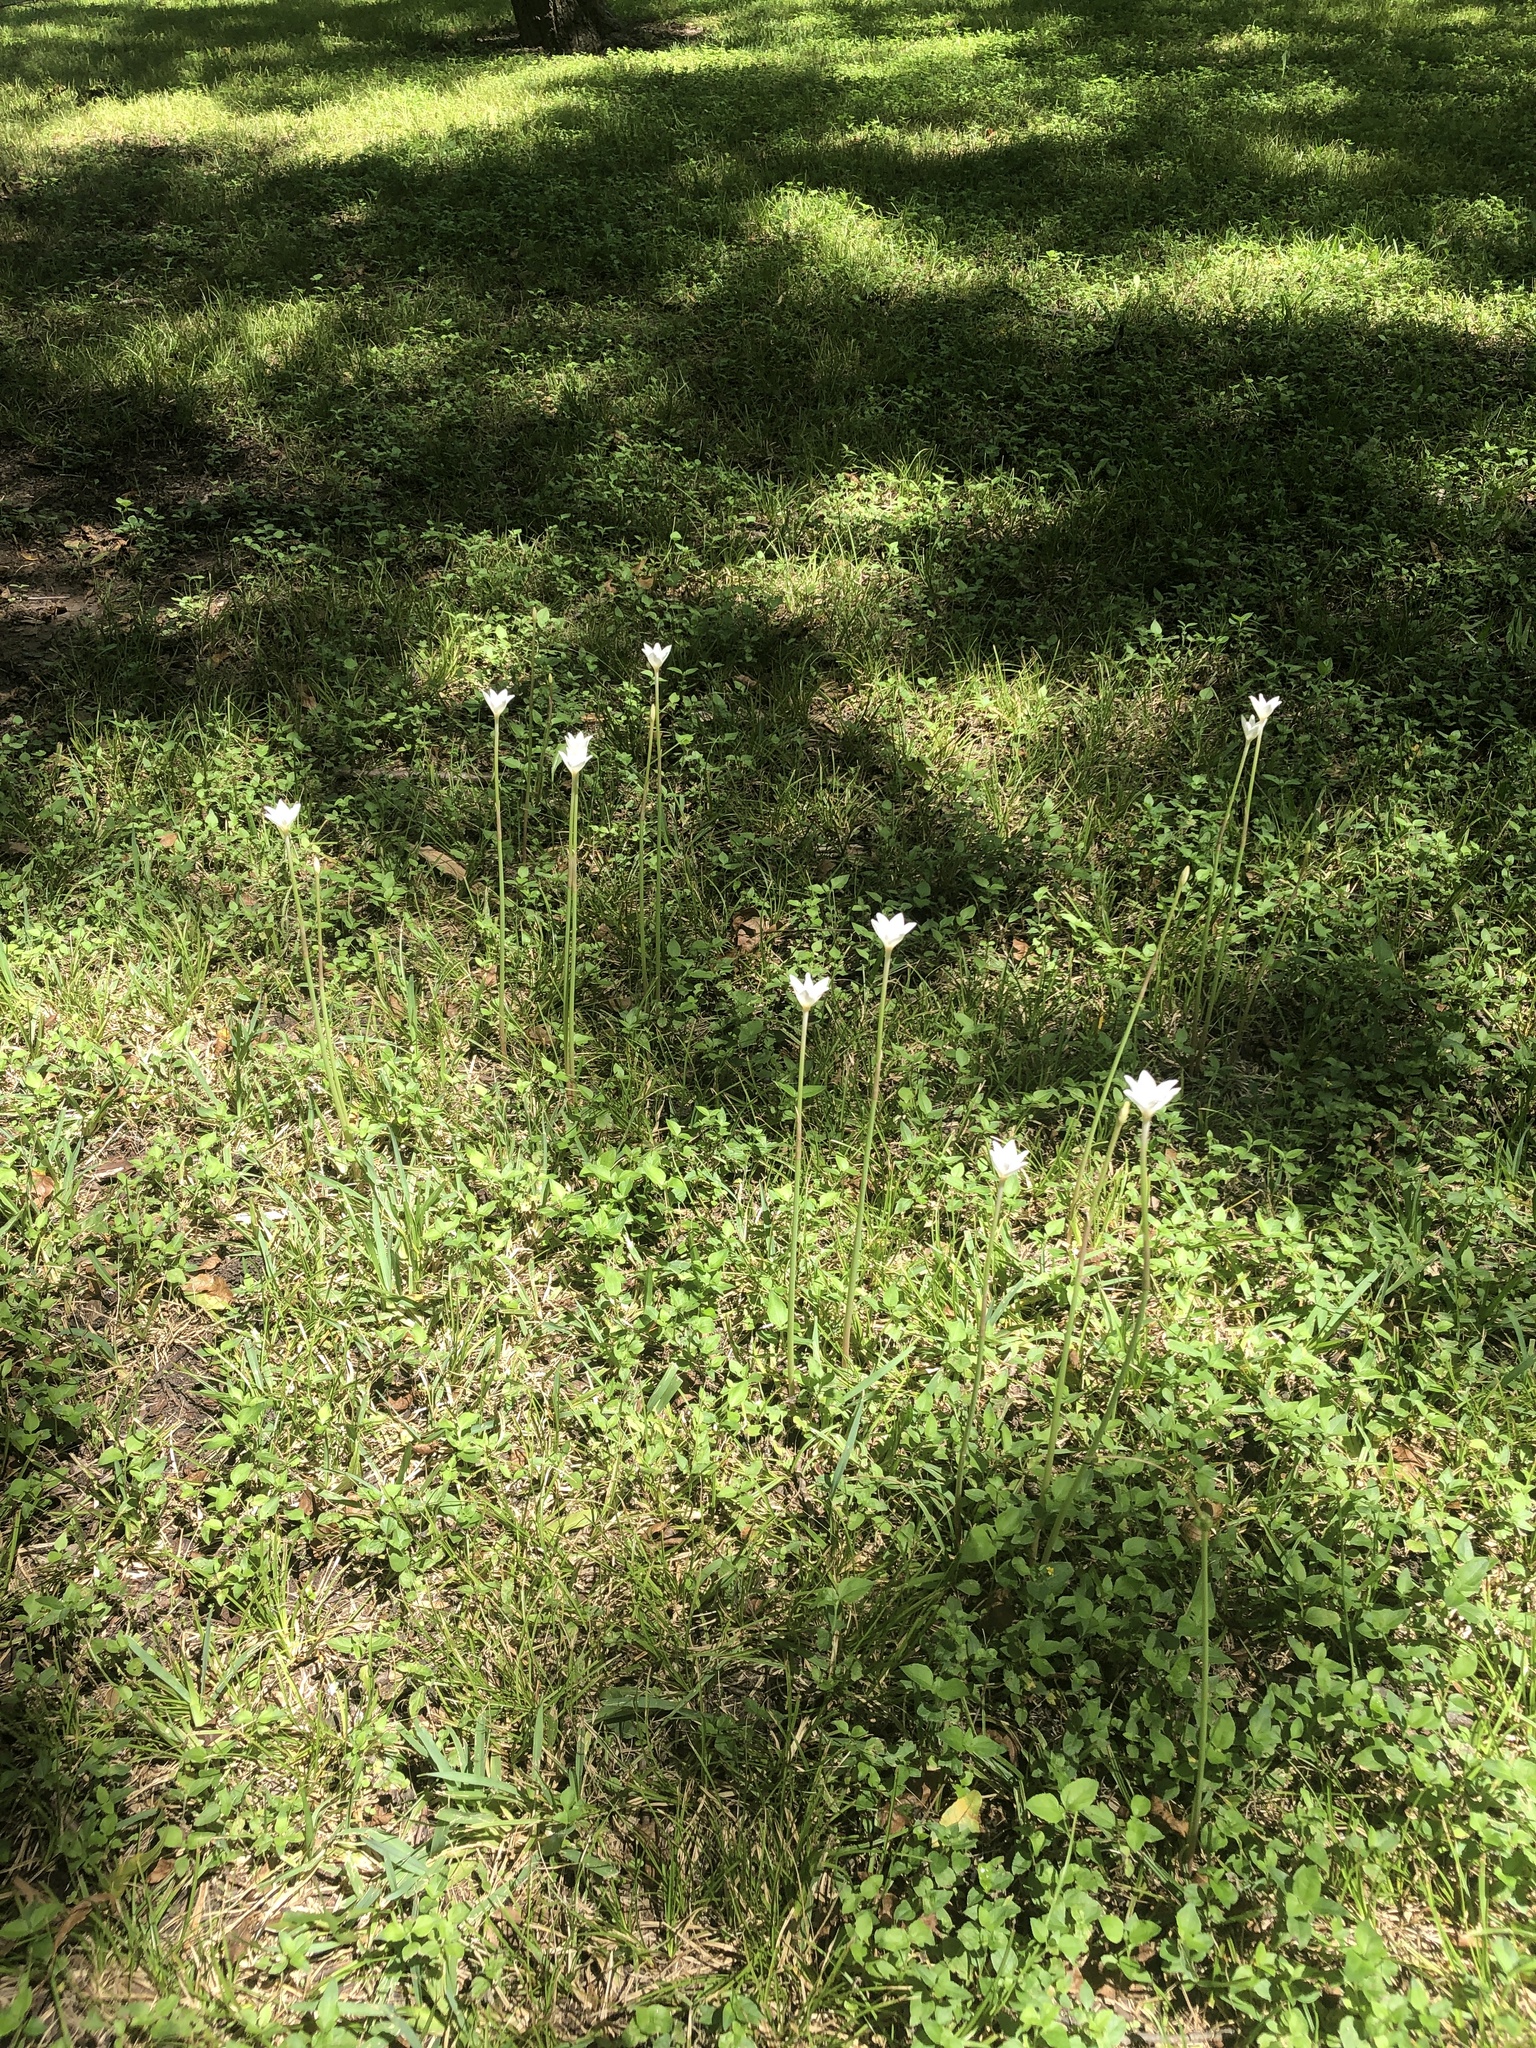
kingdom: Plantae
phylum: Tracheophyta
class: Liliopsida
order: Asparagales
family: Amaryllidaceae
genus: Zephyranthes
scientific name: Zephyranthes chlorosolen
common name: Evening rain-lily
